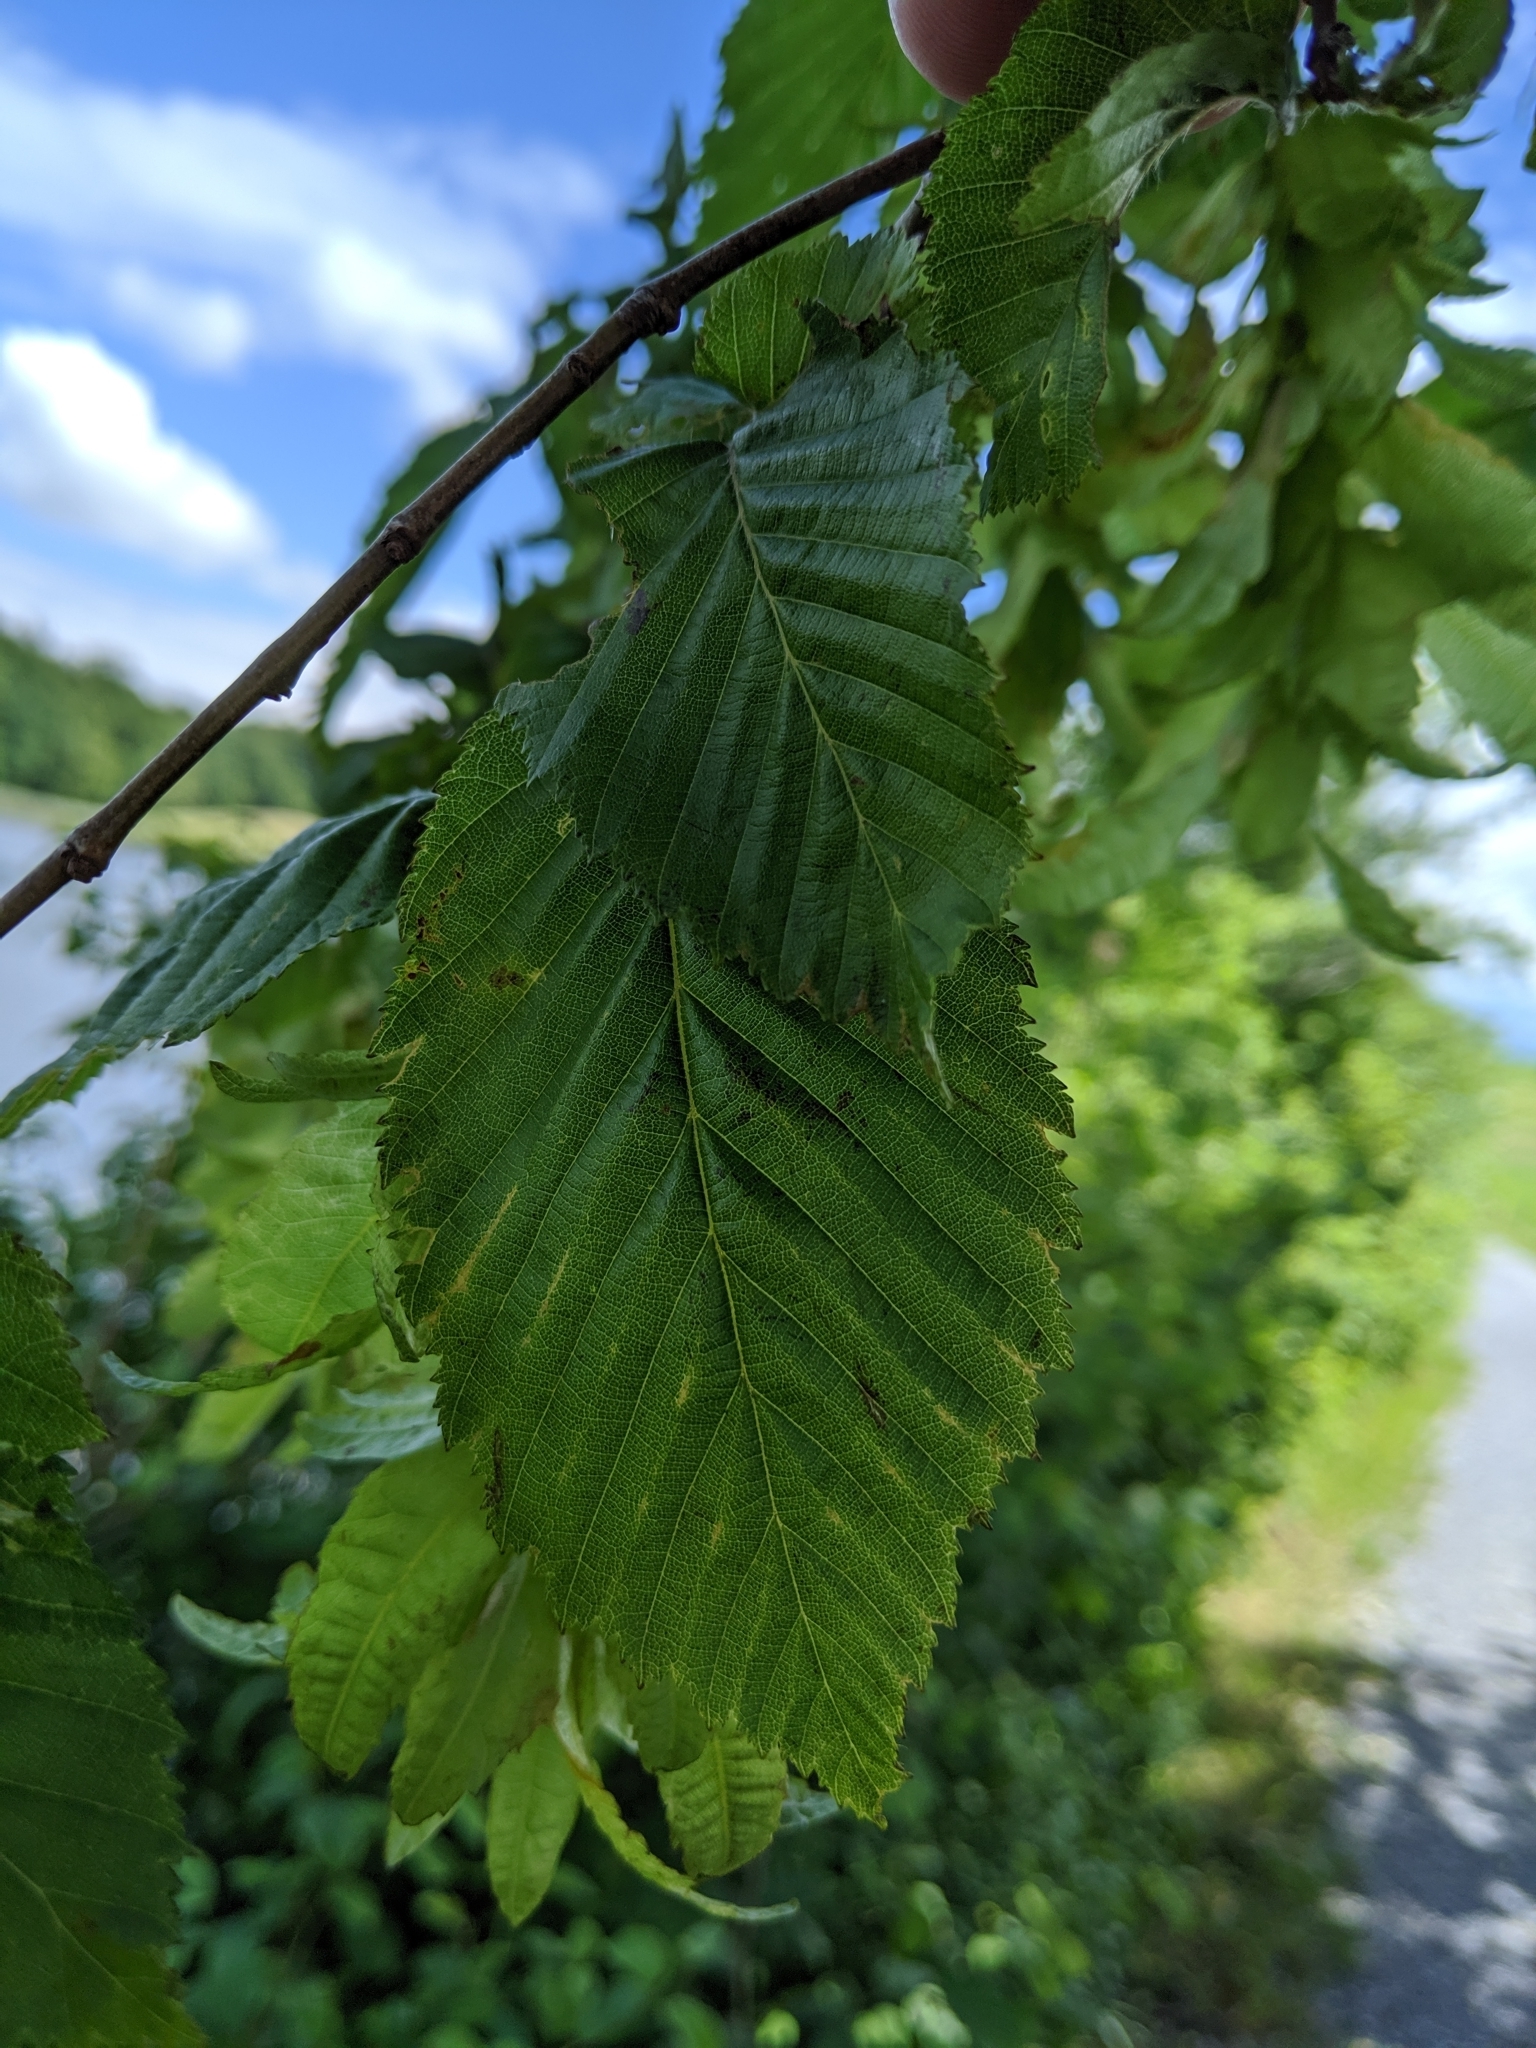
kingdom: Plantae
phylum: Tracheophyta
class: Magnoliopsida
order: Fagales
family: Betulaceae
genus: Carpinus
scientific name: Carpinus betulus
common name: Hornbeam
